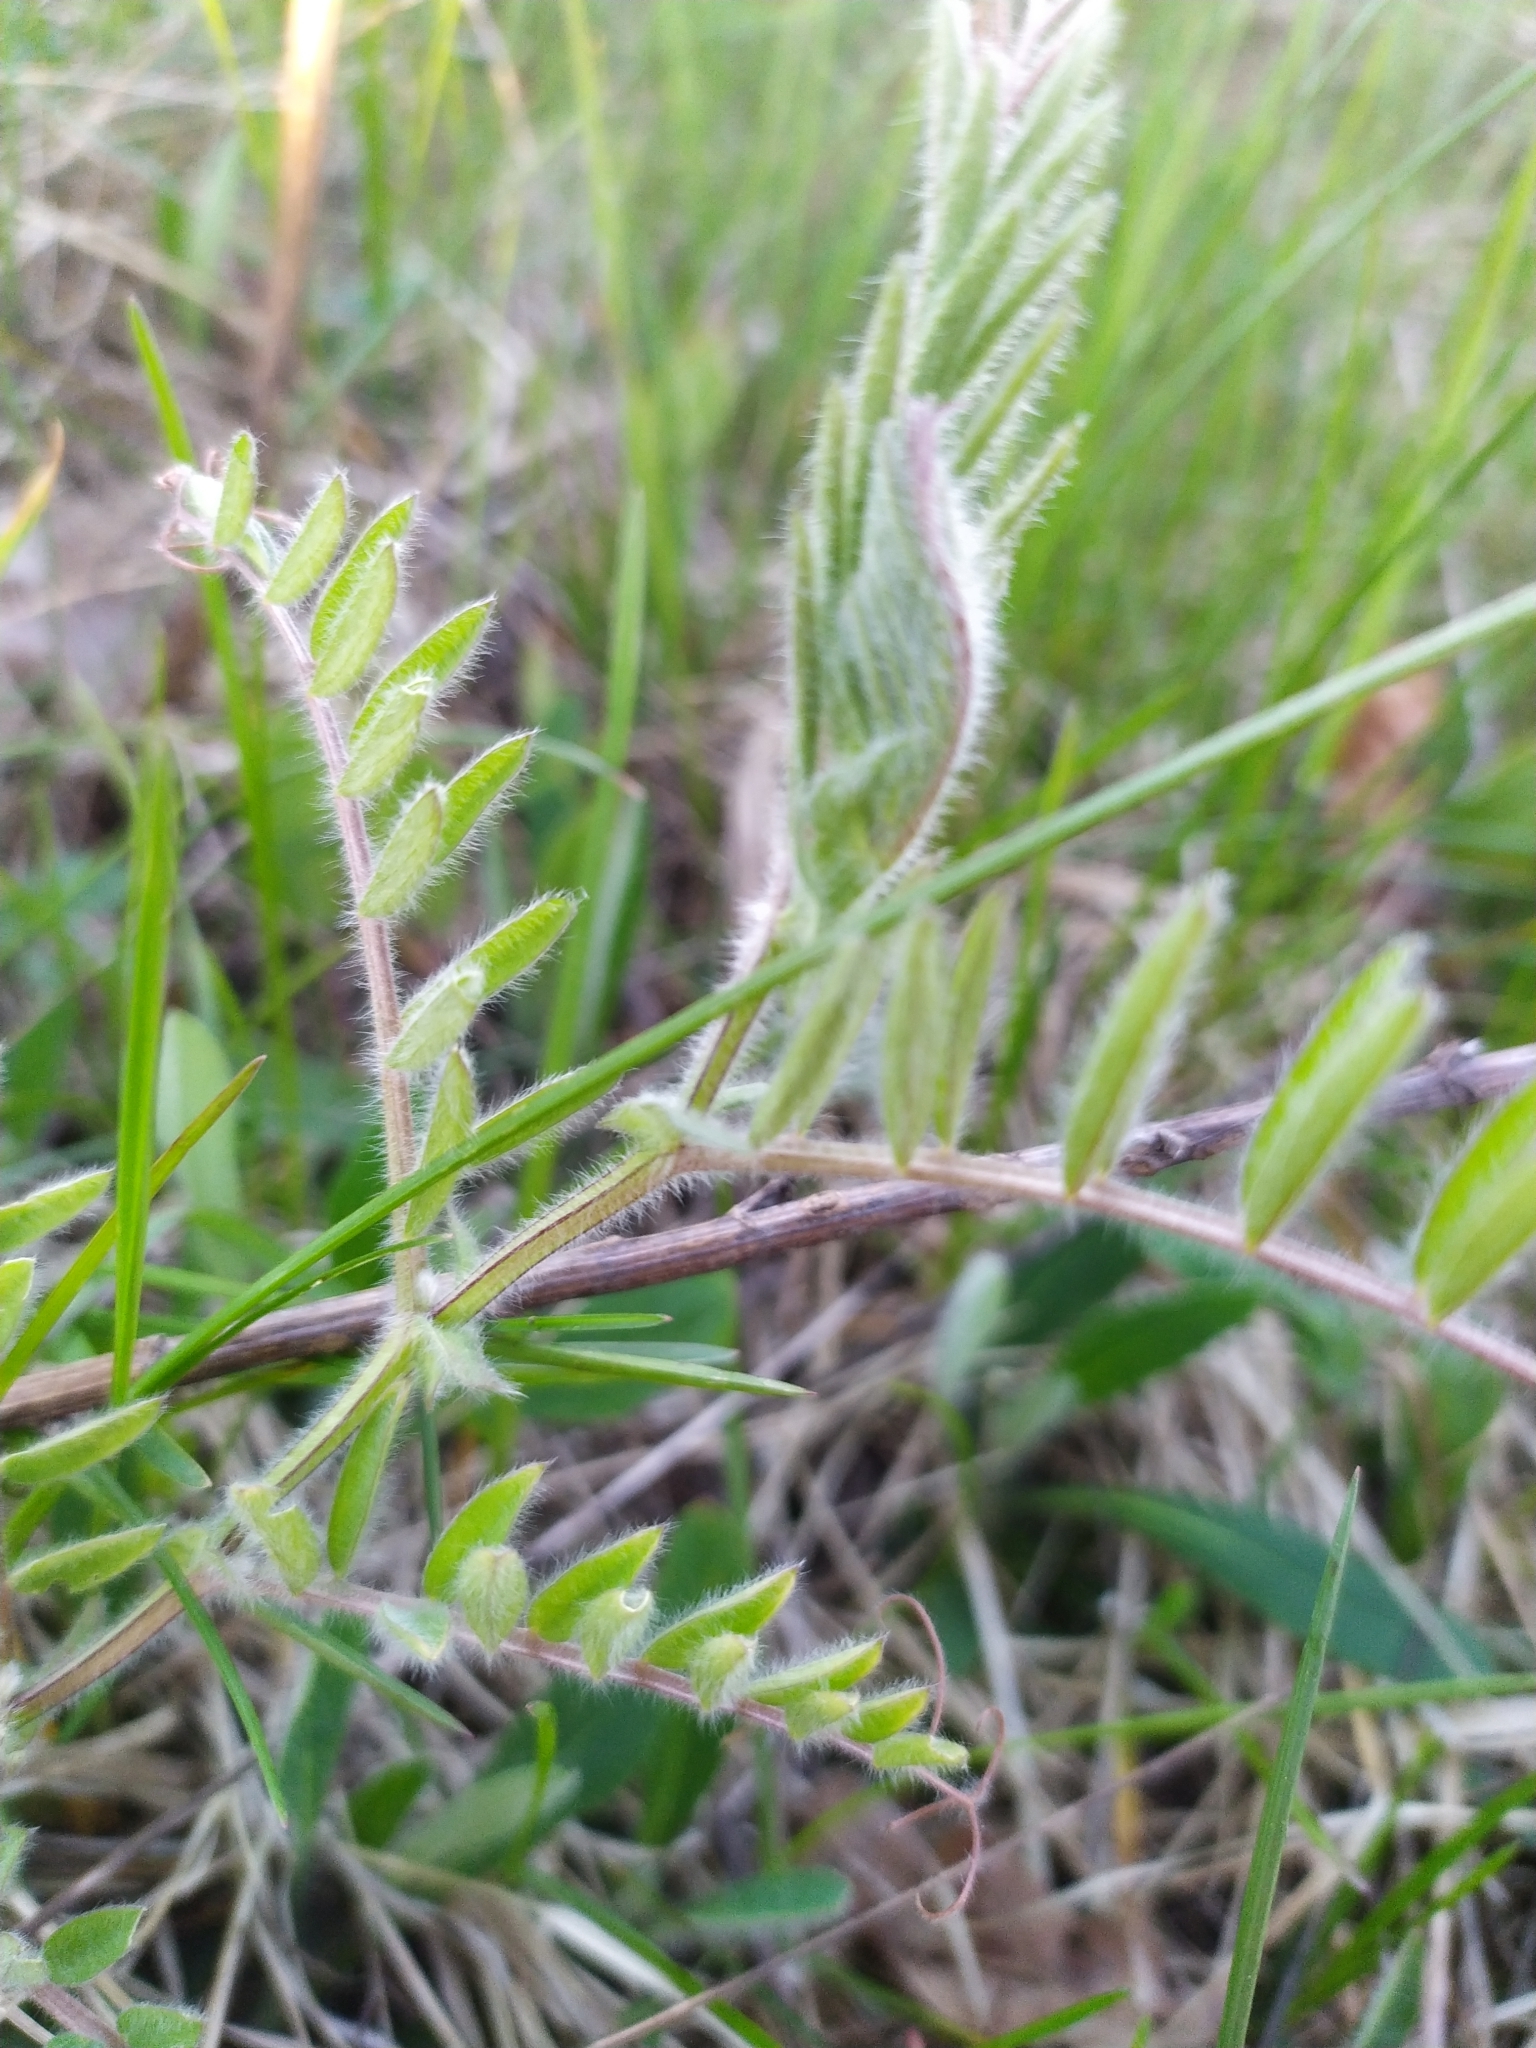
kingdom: Plantae
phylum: Tracheophyta
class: Magnoliopsida
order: Fabales
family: Fabaceae
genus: Vicia
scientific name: Vicia villosa
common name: Fodder vetch
